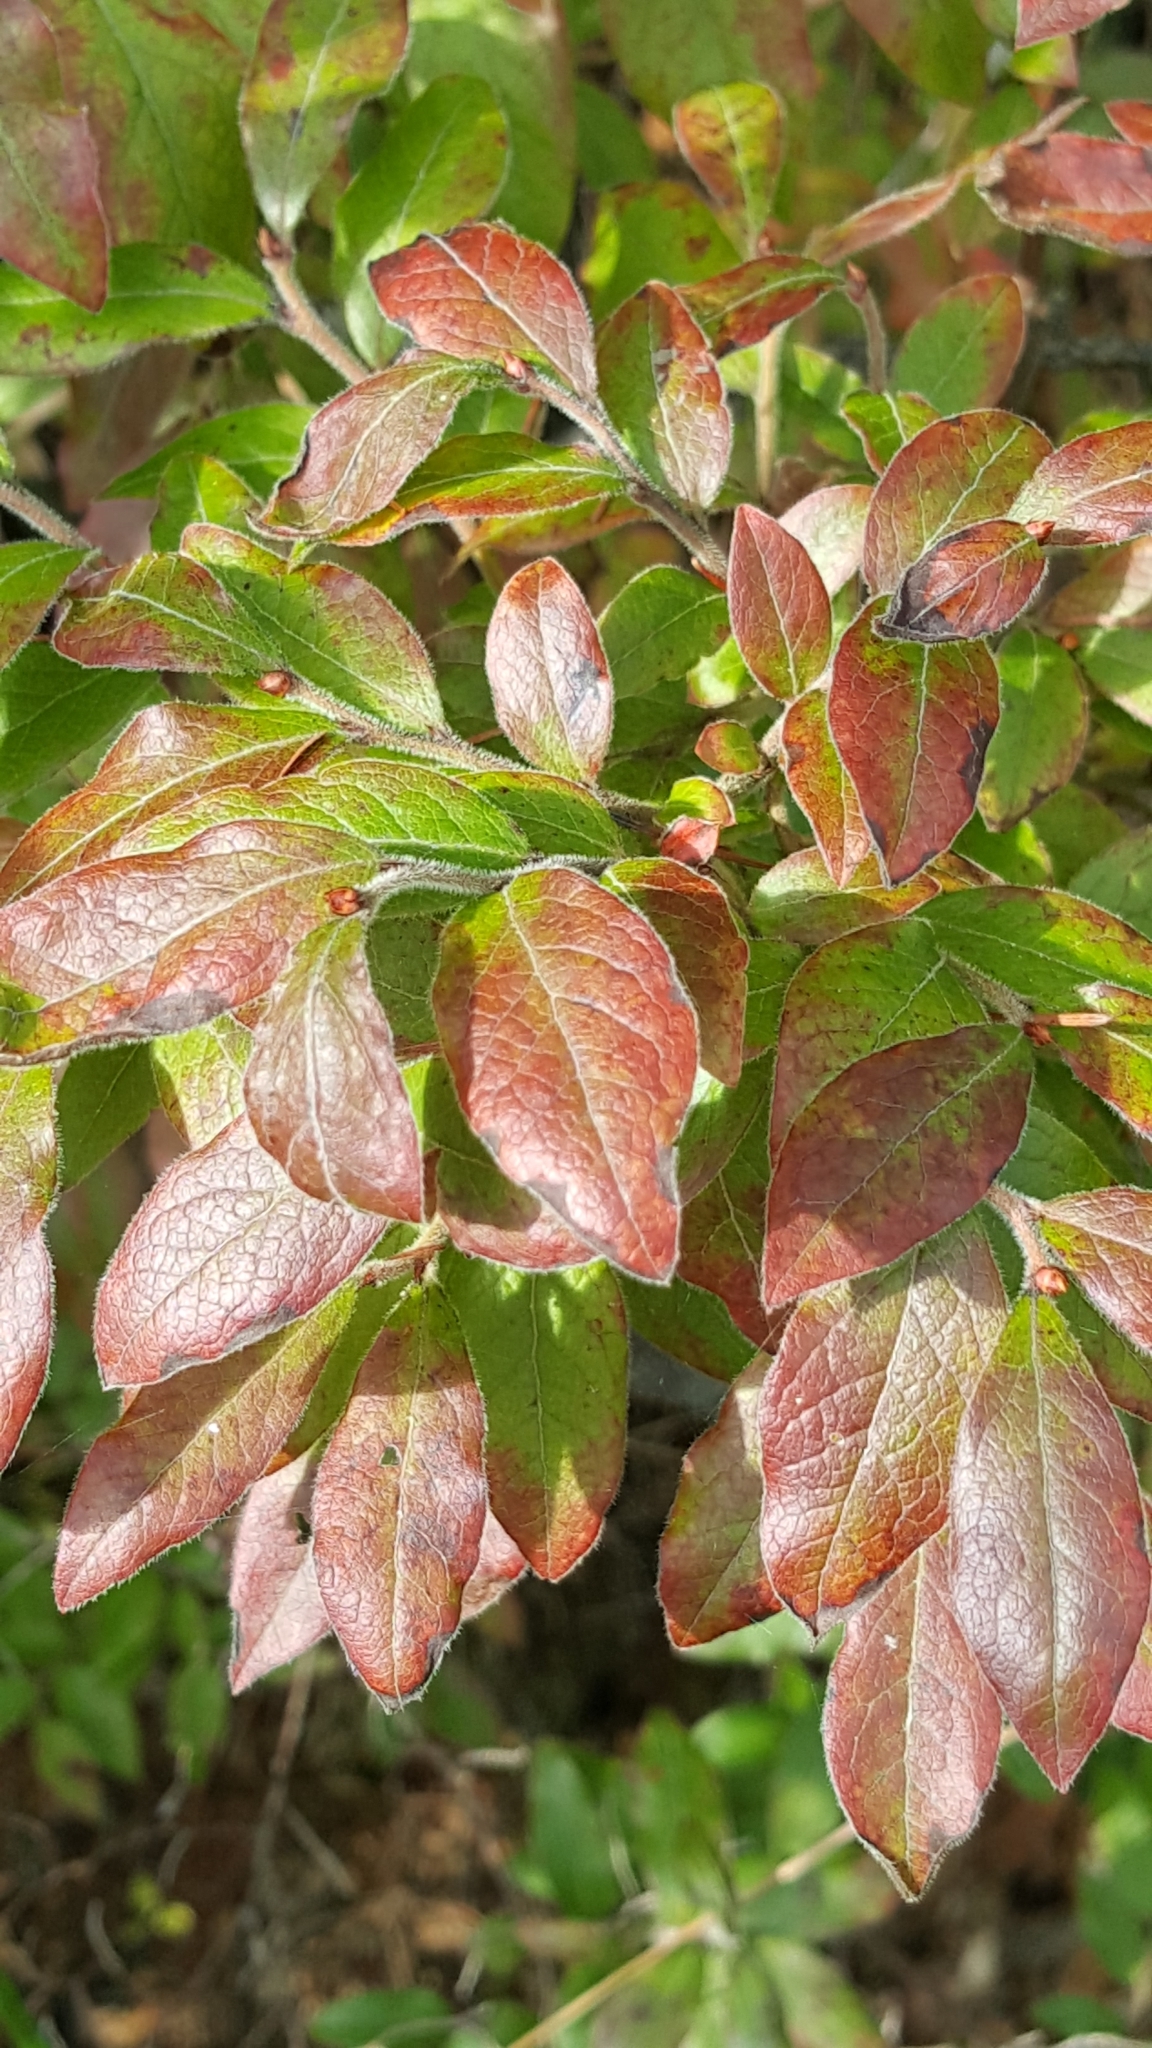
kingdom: Plantae
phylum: Tracheophyta
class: Magnoliopsida
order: Ericales
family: Ericaceae
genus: Vaccinium
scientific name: Vaccinium myrtilloides
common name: Canada blueberry
